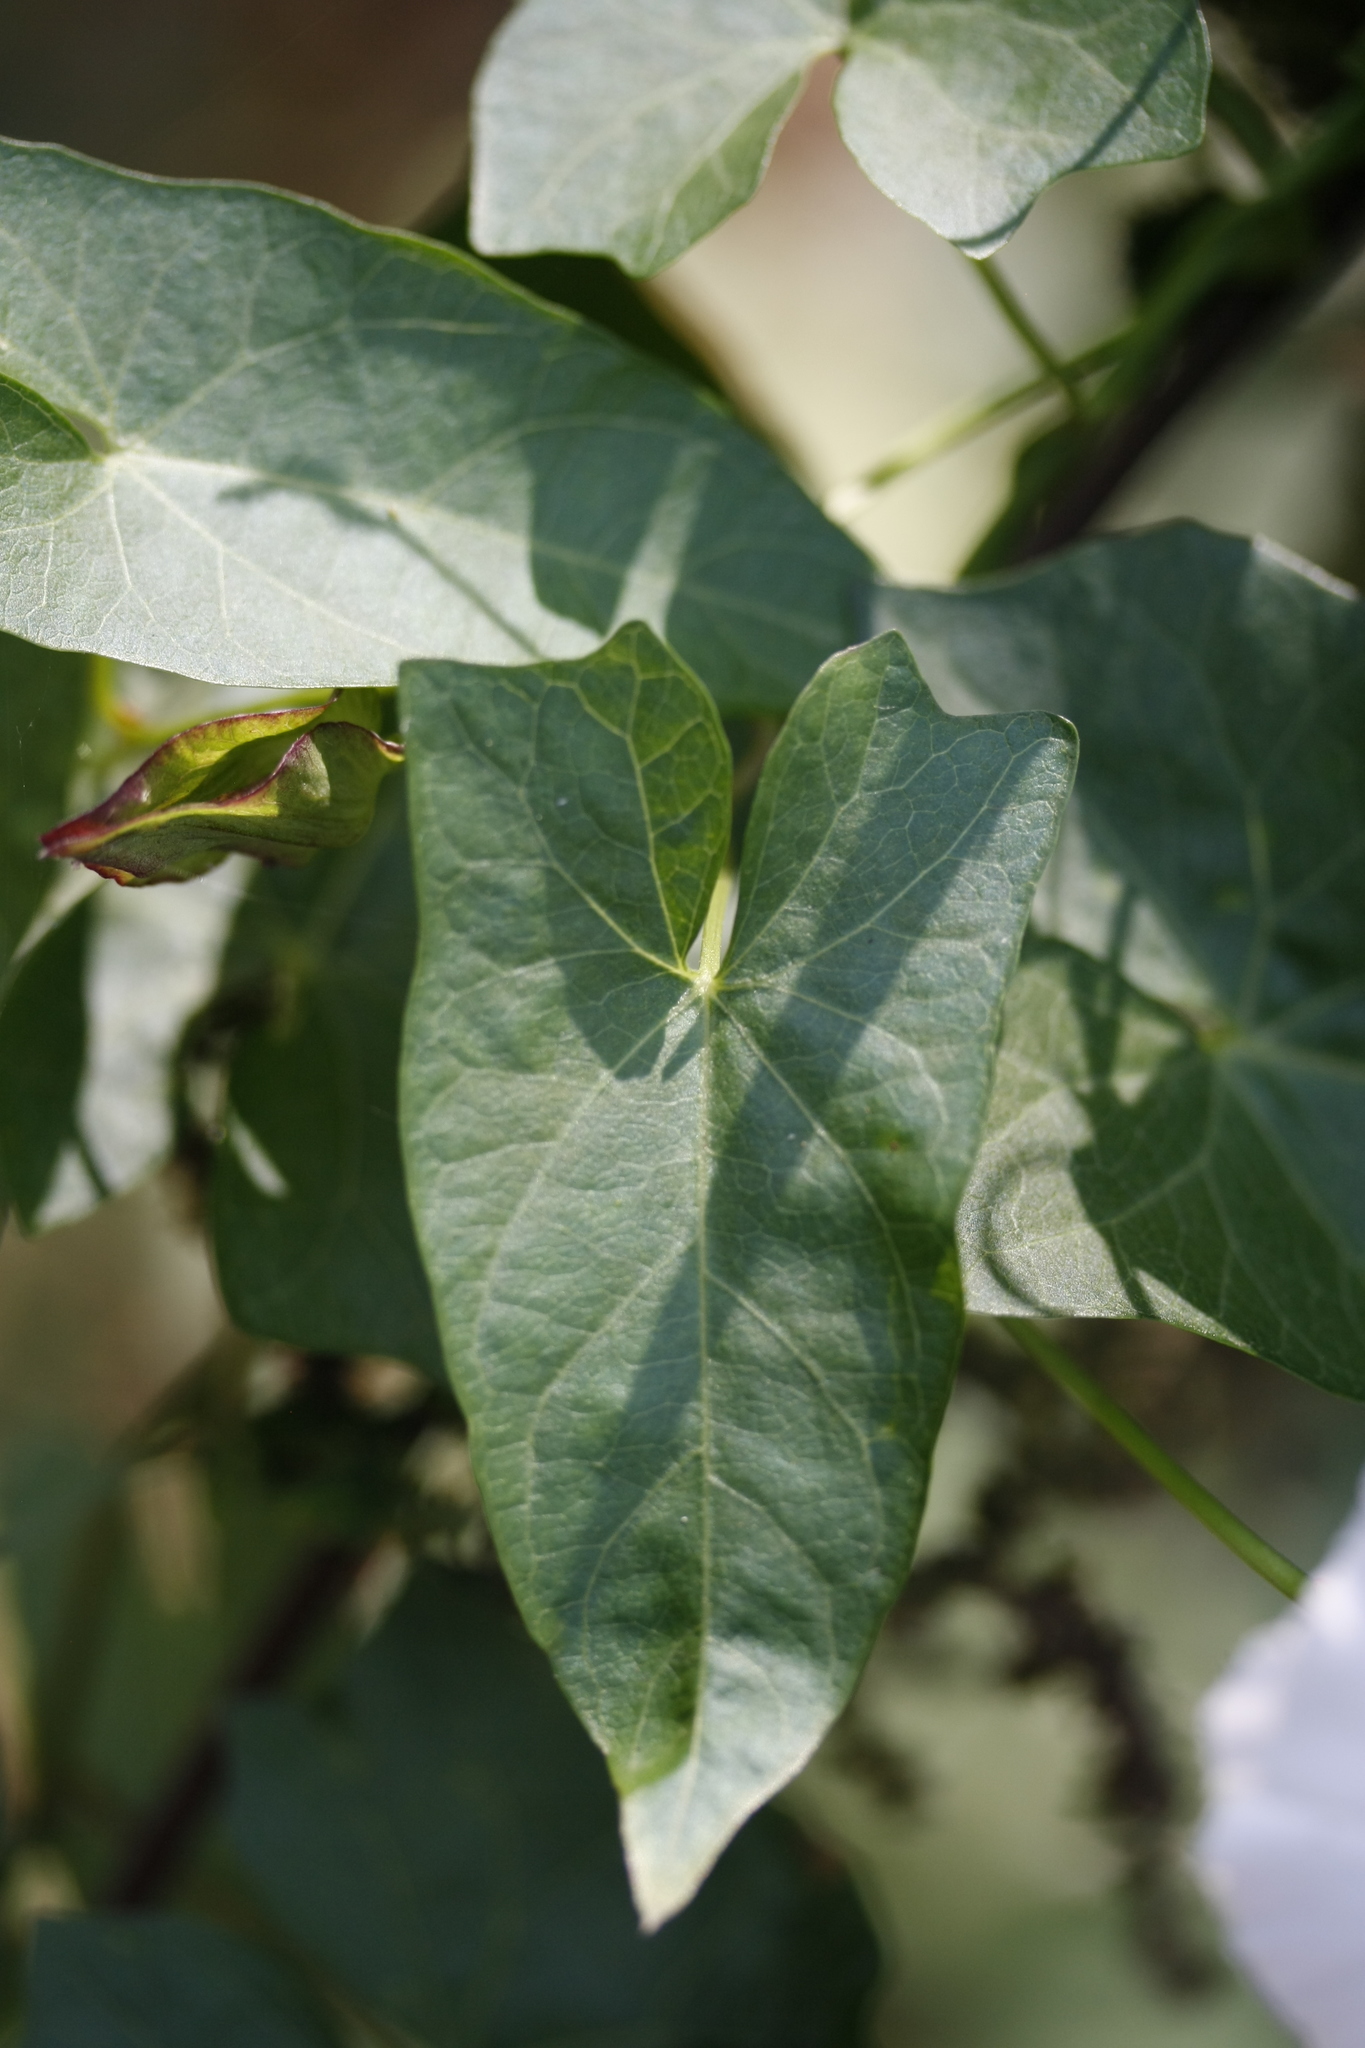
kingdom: Plantae
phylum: Tracheophyta
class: Magnoliopsida
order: Solanales
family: Convolvulaceae
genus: Calystegia
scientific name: Calystegia sepium
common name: Hedge bindweed
